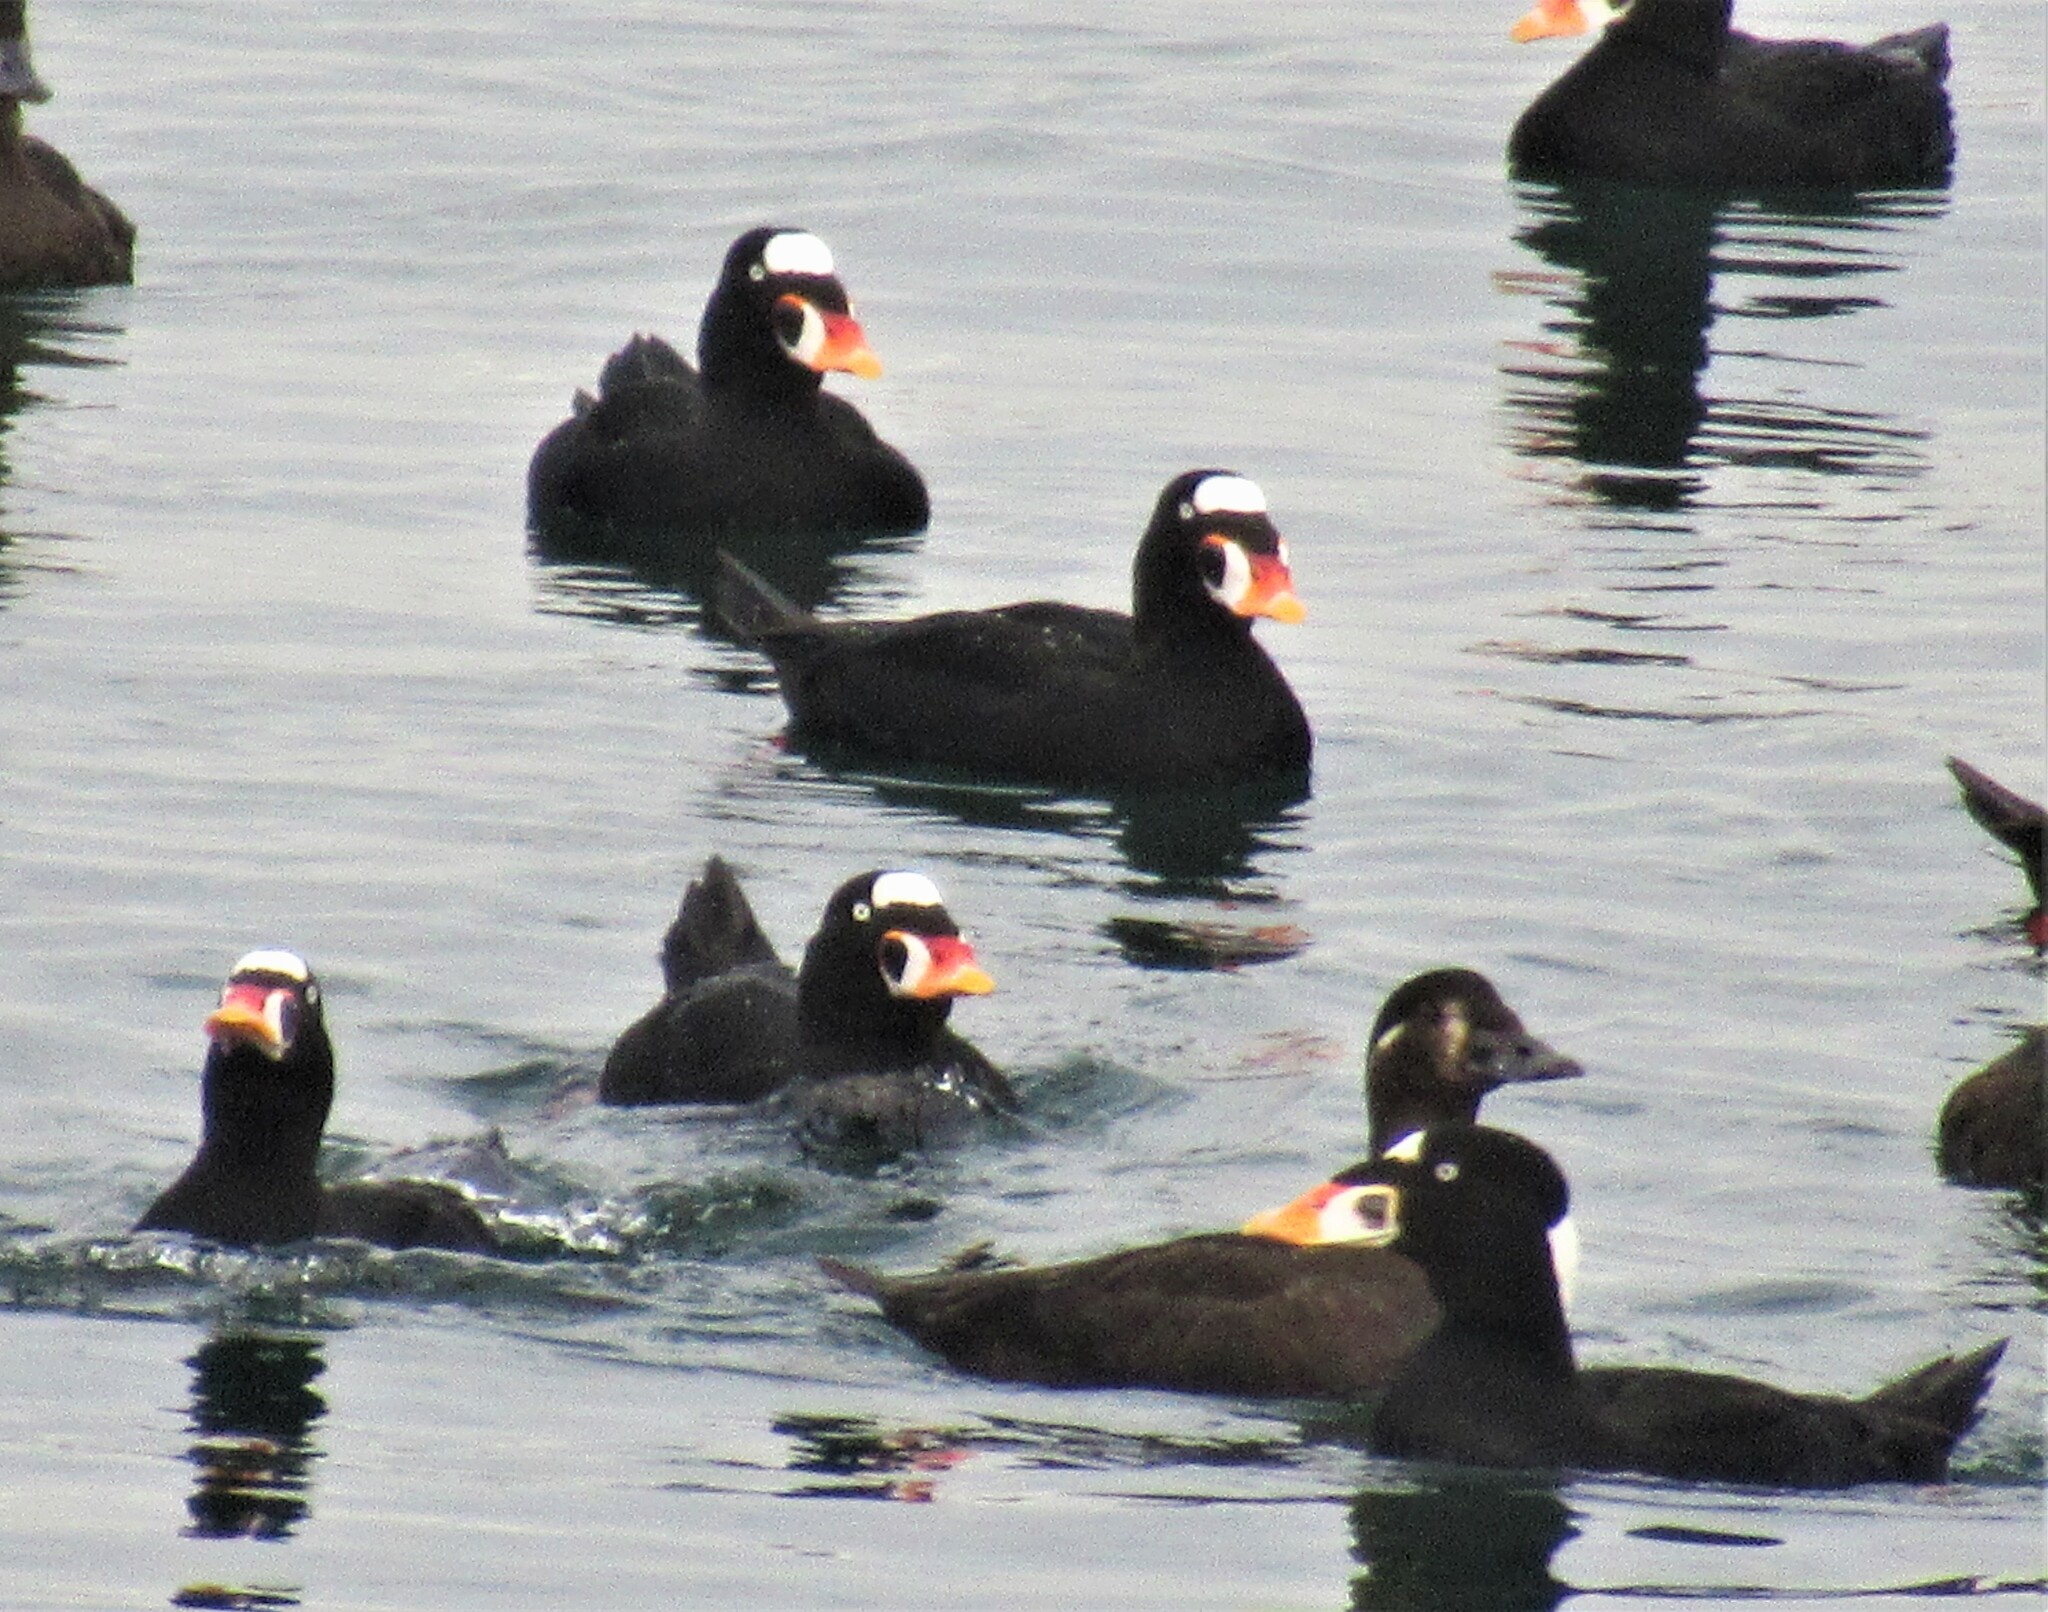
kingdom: Animalia
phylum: Chordata
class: Aves
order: Anseriformes
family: Anatidae
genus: Melanitta
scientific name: Melanitta perspicillata
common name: Surf scoter
